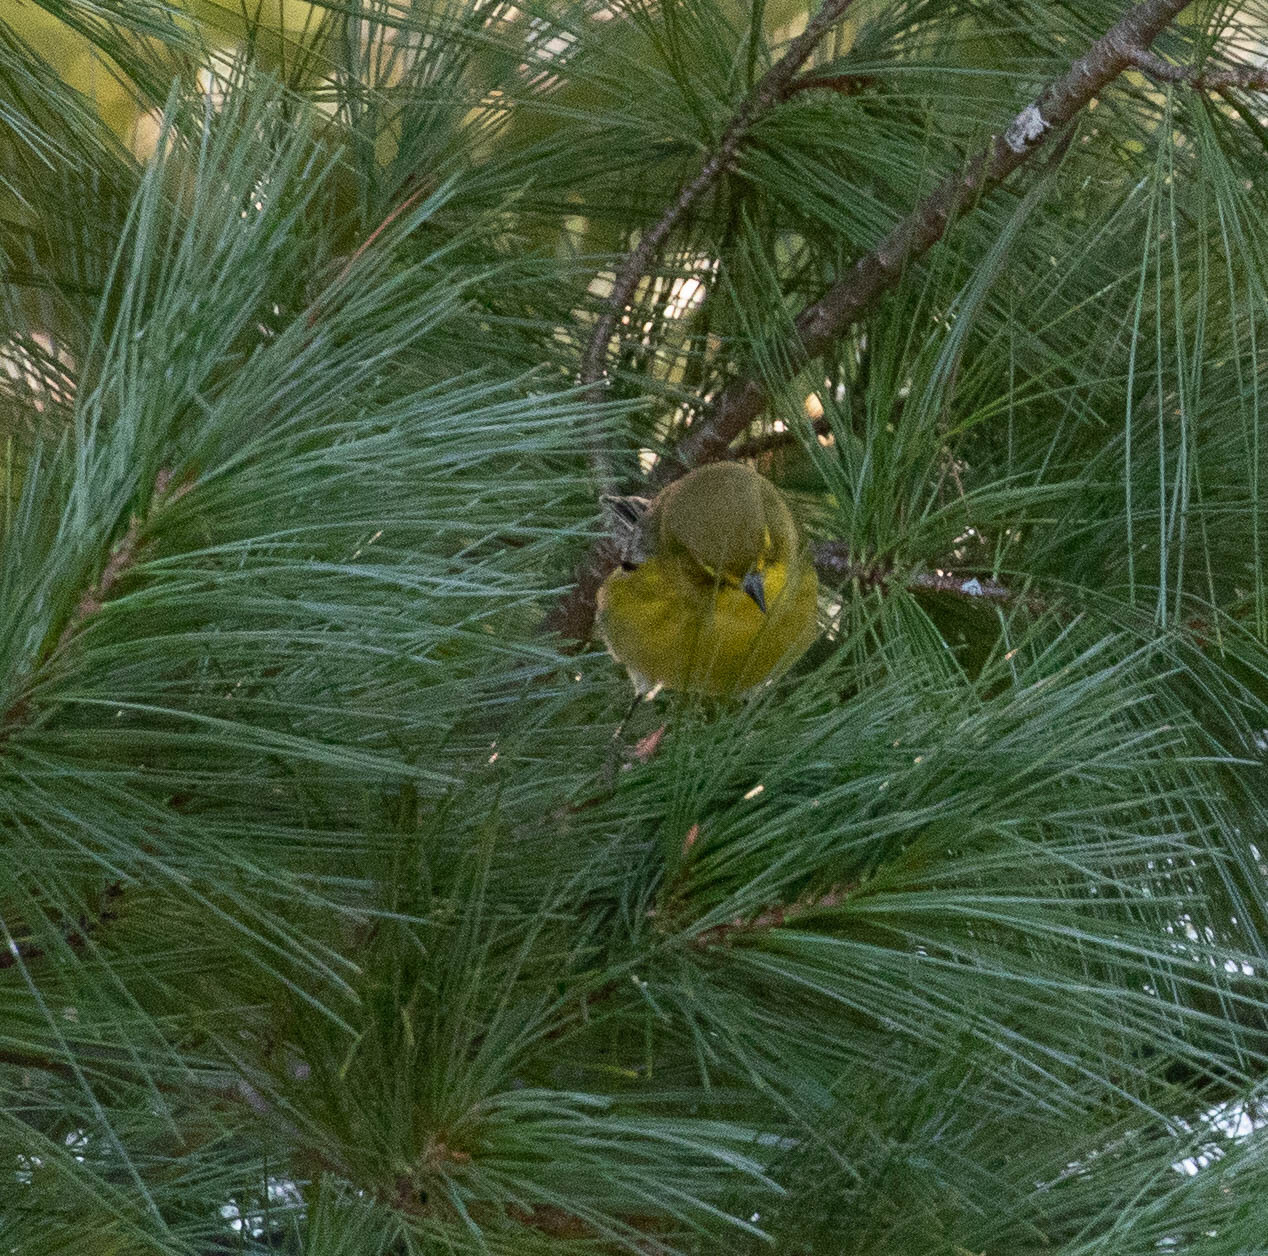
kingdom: Animalia
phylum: Chordata
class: Aves
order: Passeriformes
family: Parulidae
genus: Setophaga
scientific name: Setophaga pinus
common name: Pine warbler
